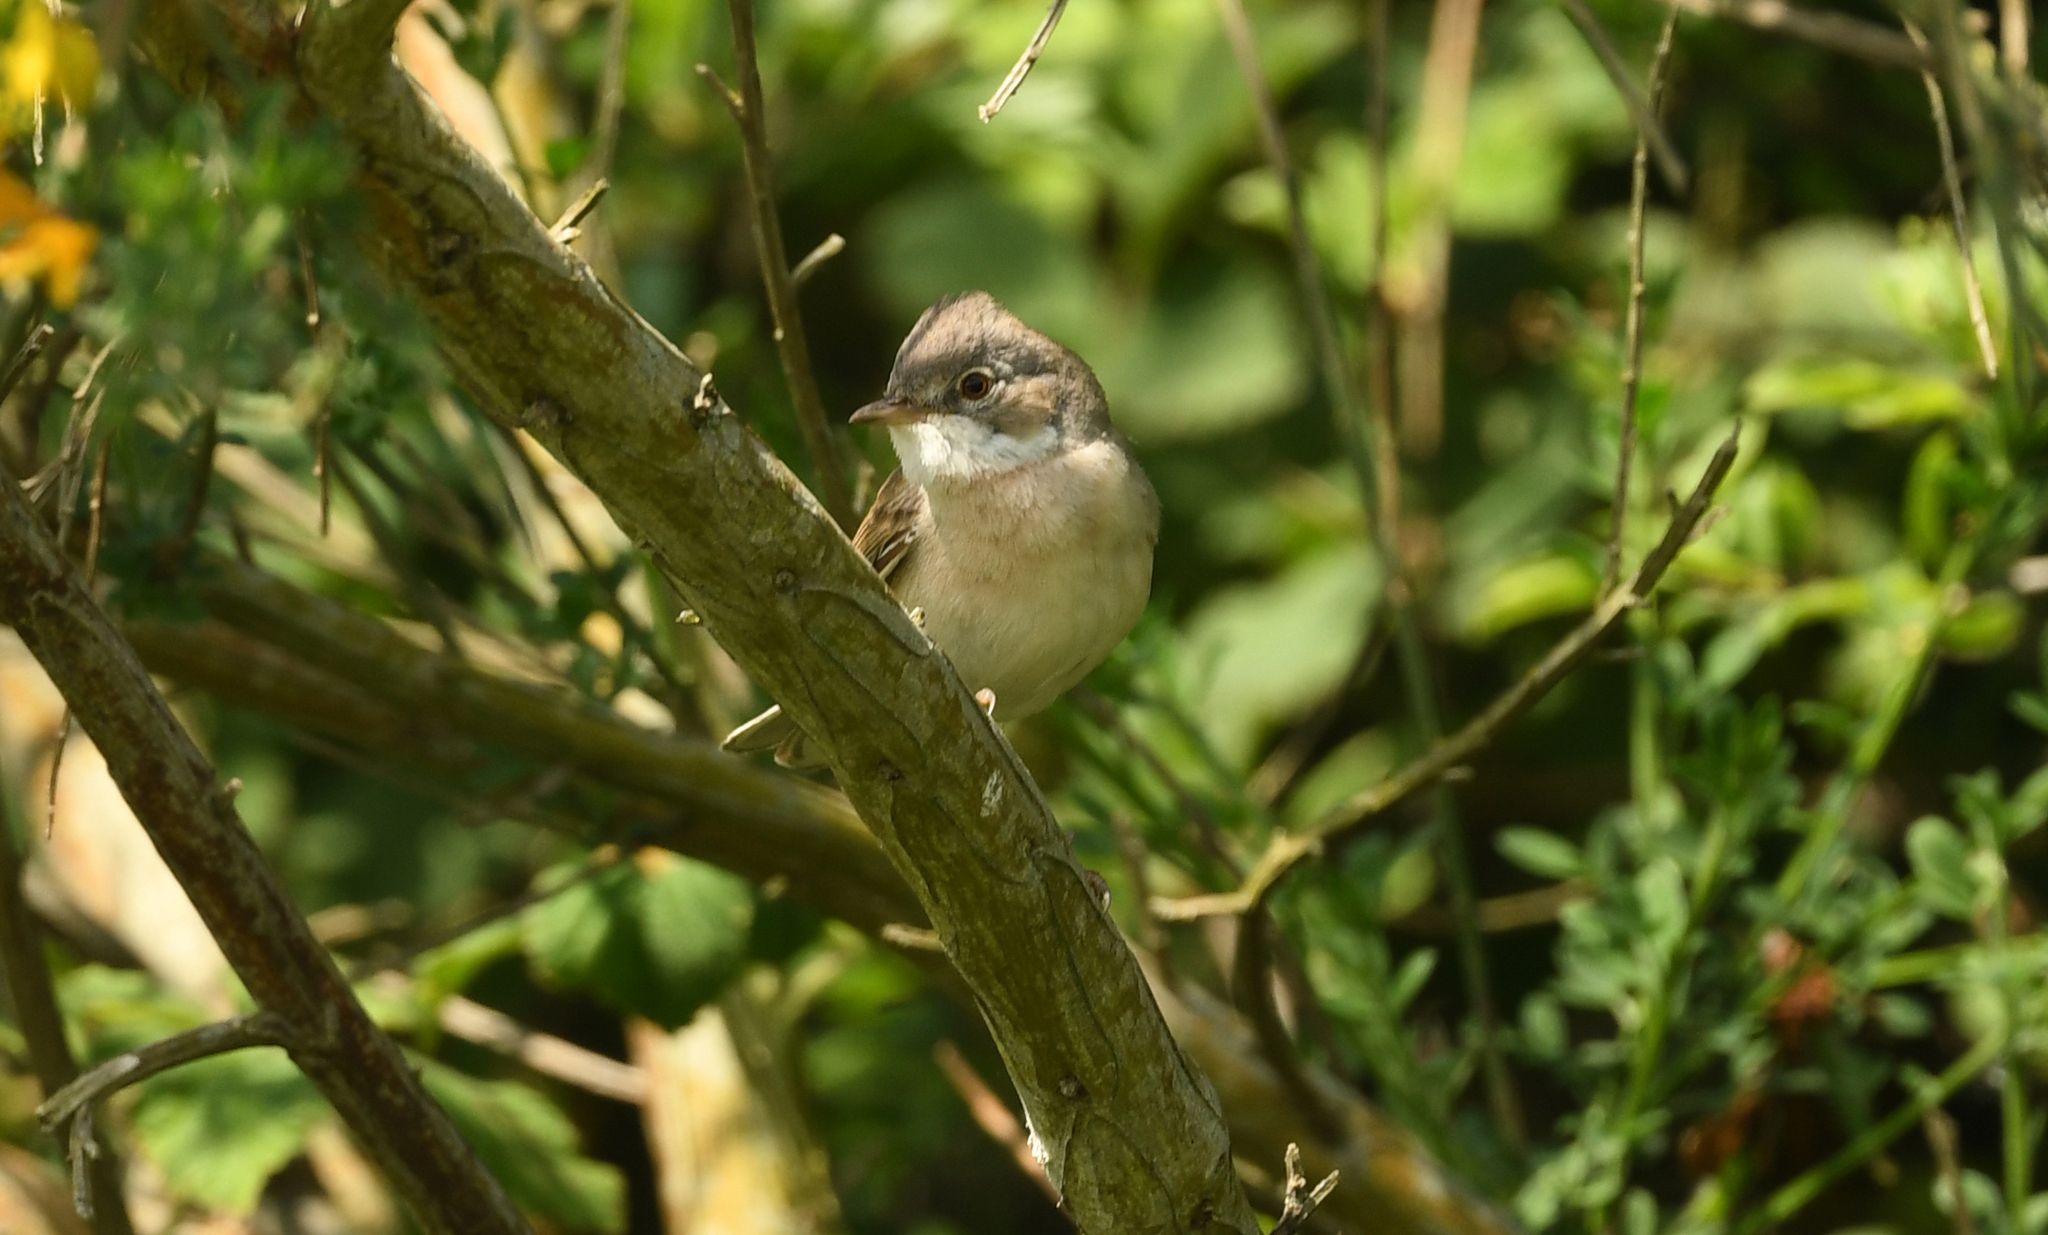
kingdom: Animalia
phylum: Chordata
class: Aves
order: Passeriformes
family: Sylviidae
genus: Sylvia
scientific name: Sylvia communis
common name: Common whitethroat
